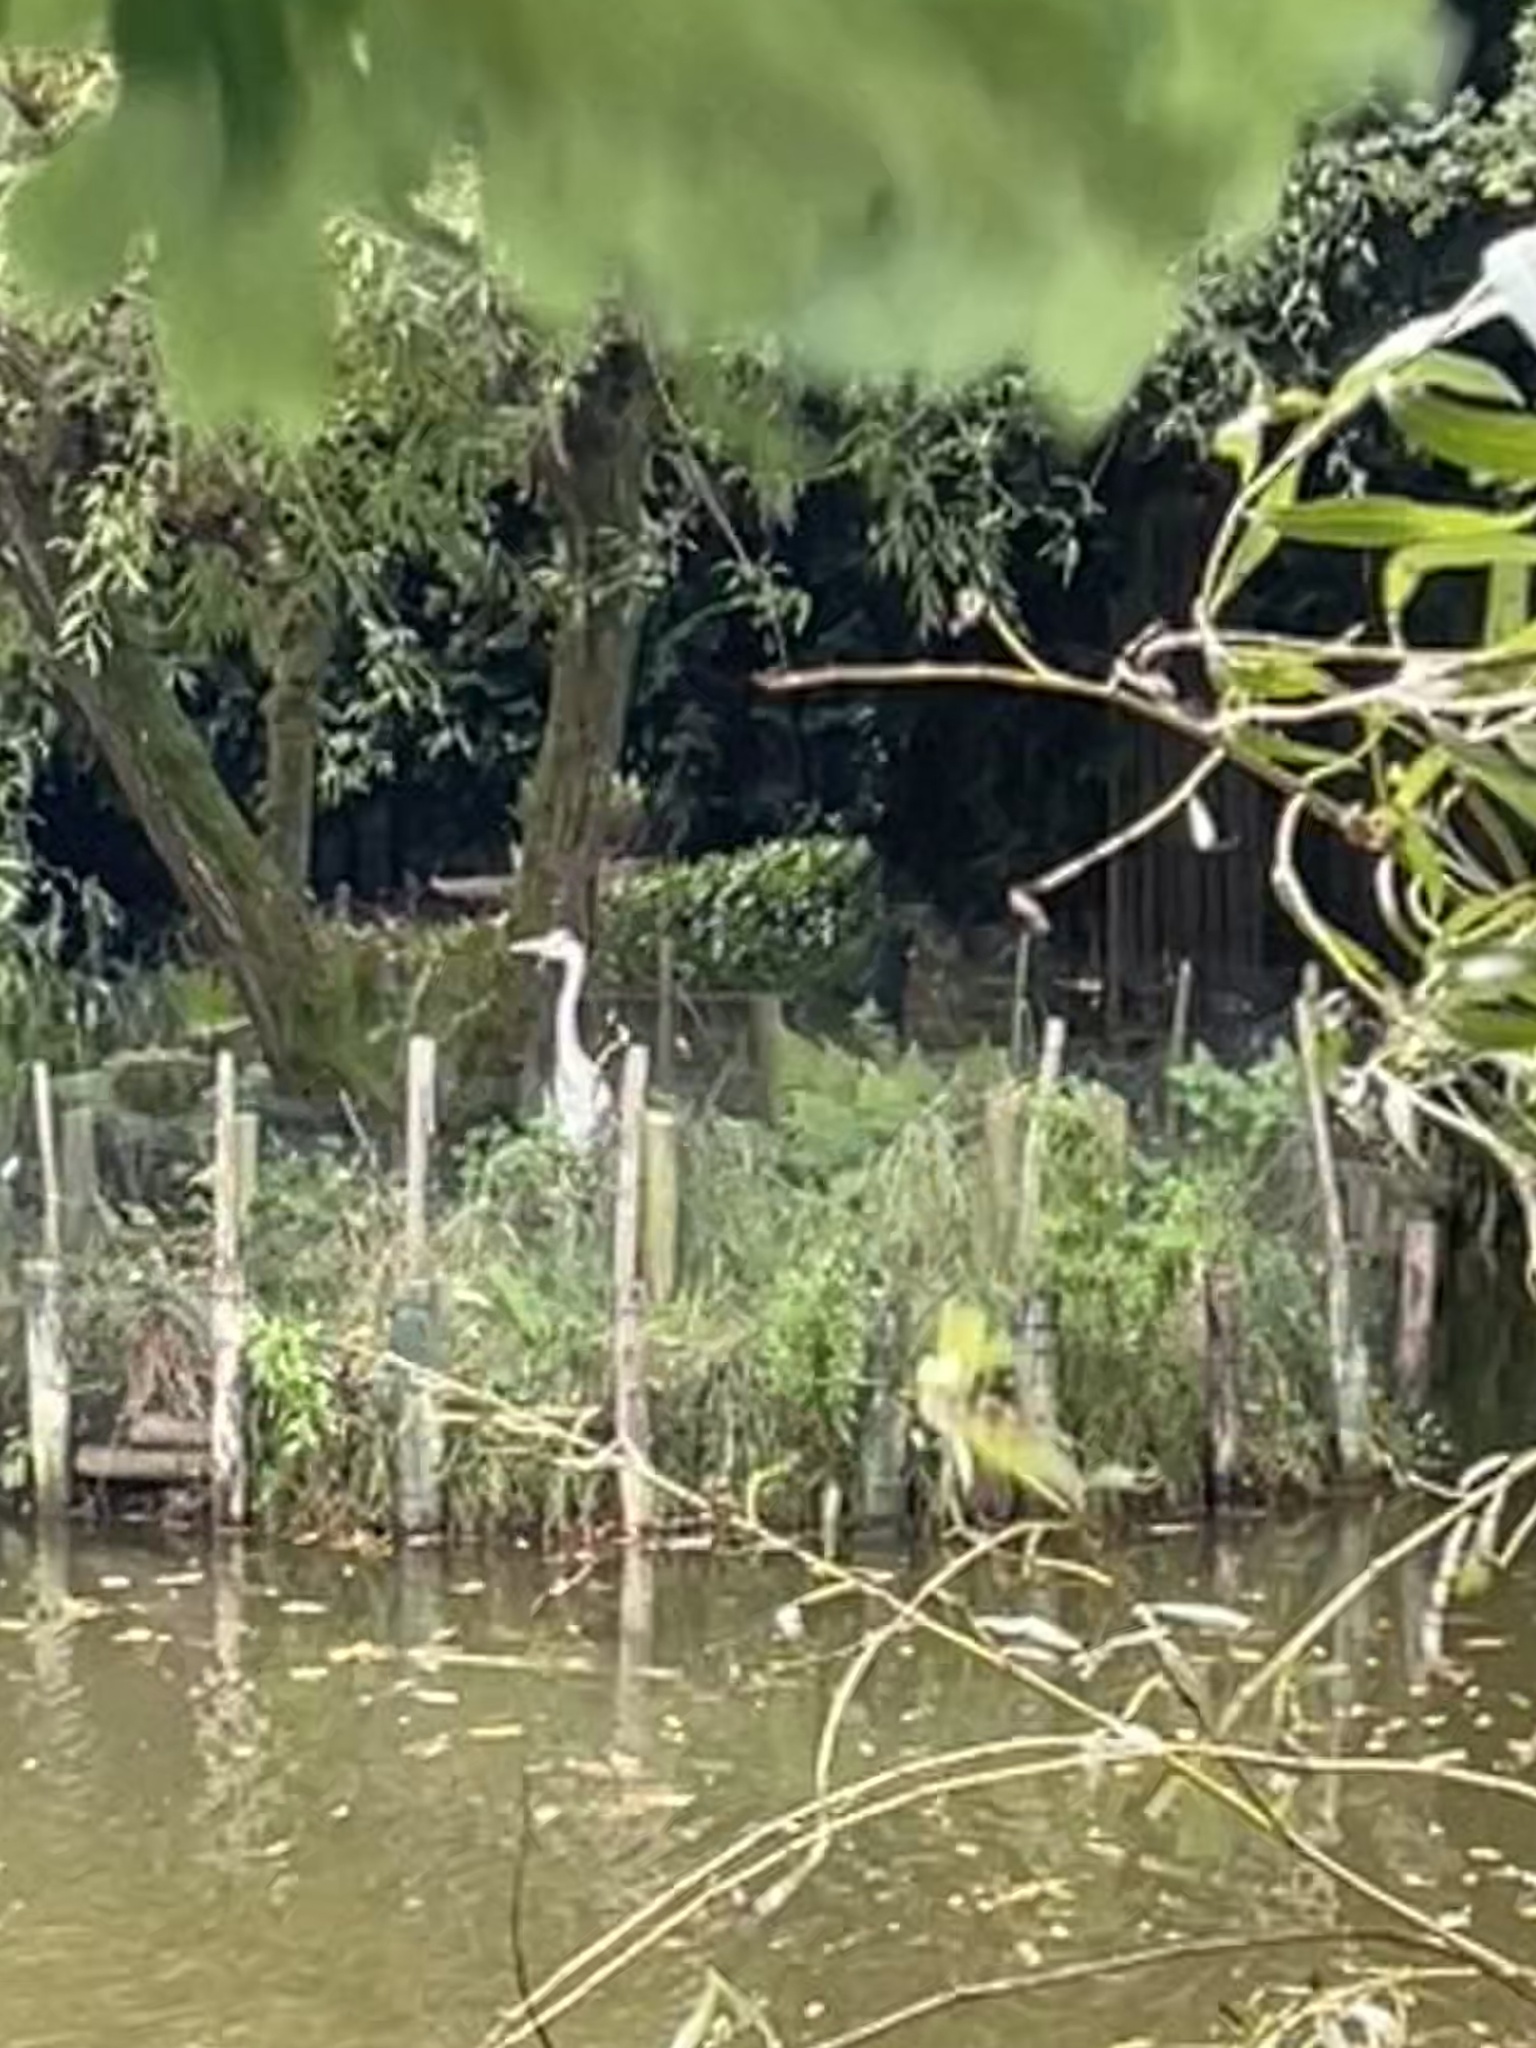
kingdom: Animalia
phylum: Chordata
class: Aves
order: Pelecaniformes
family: Ardeidae
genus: Ardea
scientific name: Ardea cinerea
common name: Grey heron
